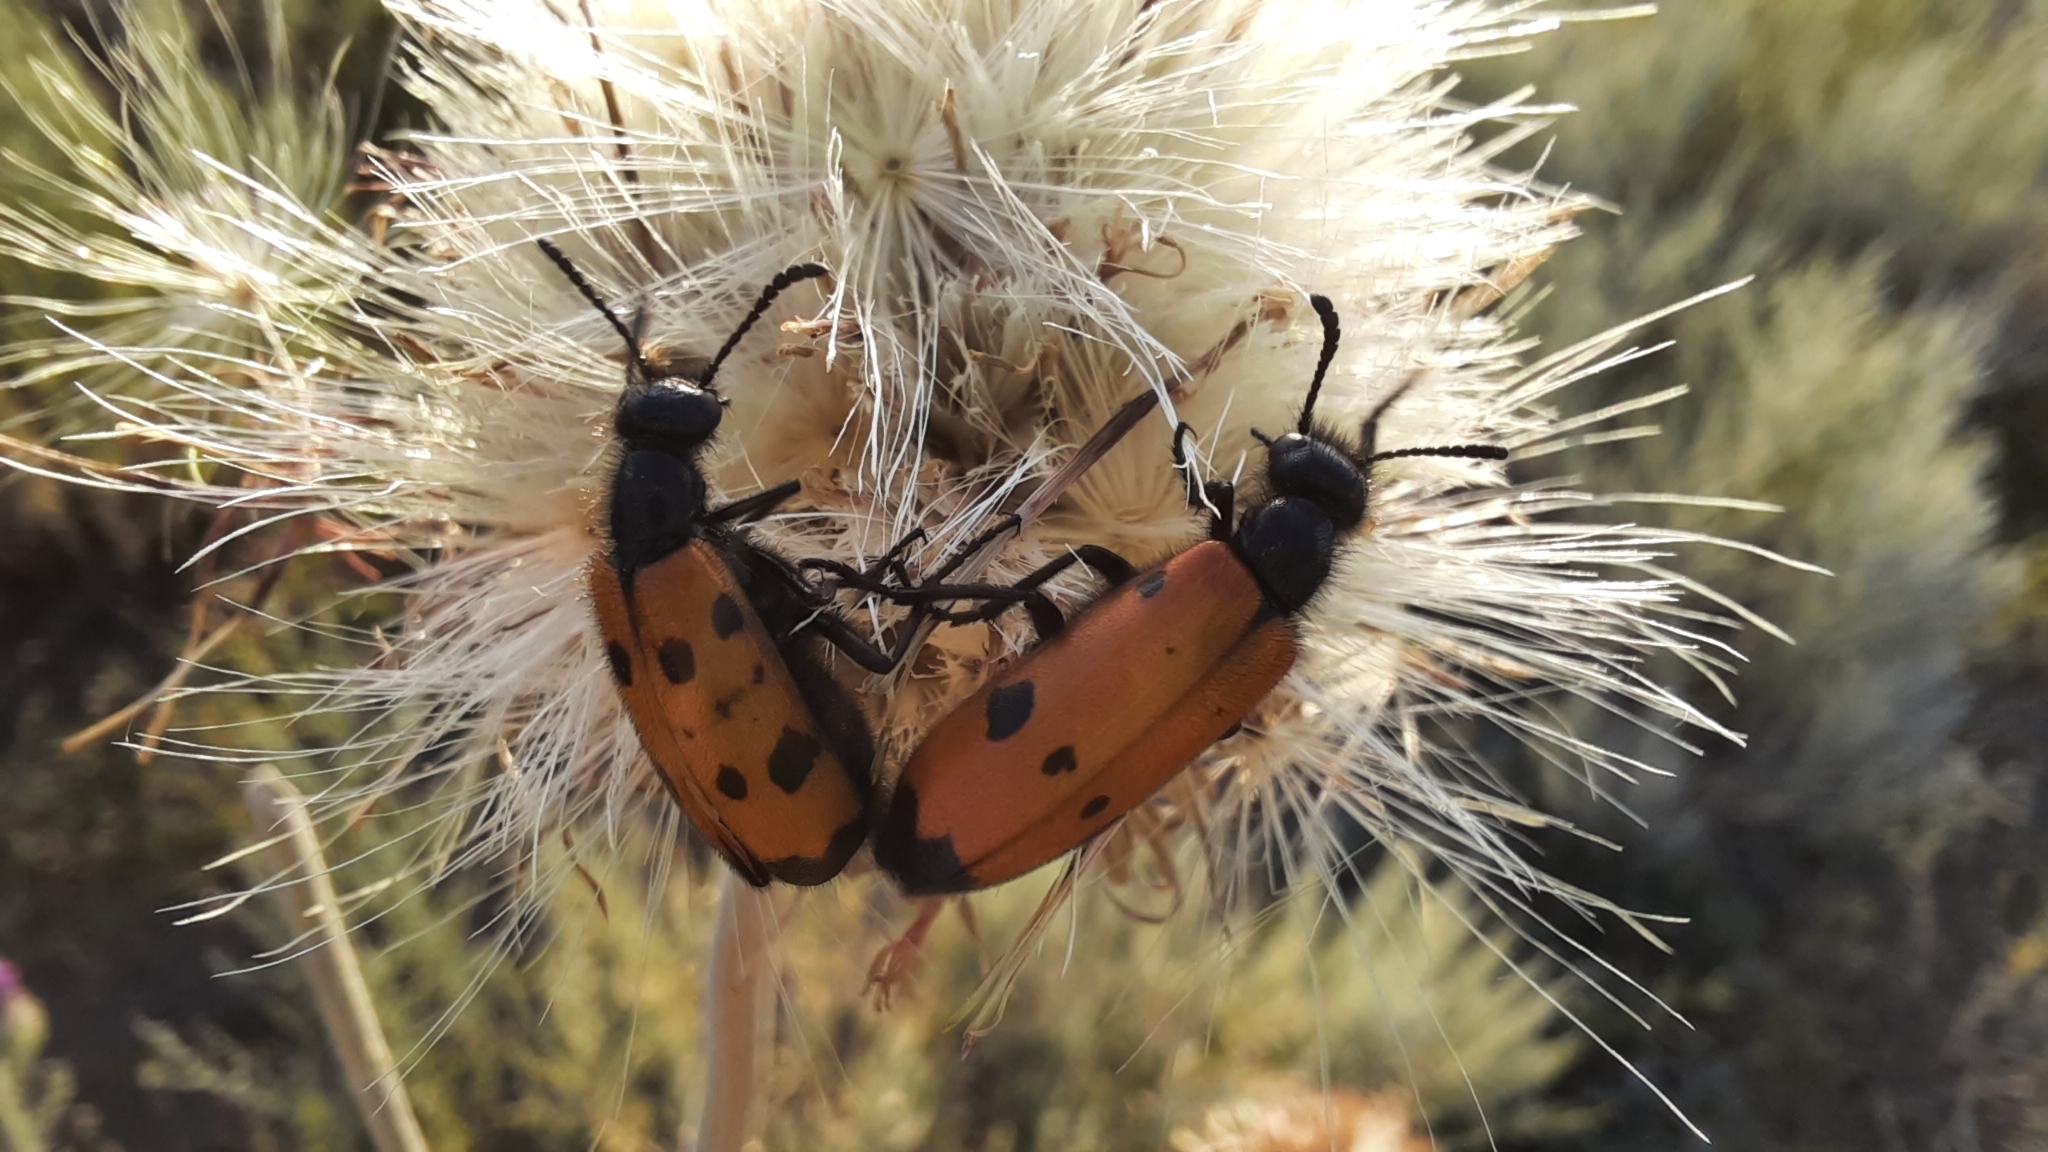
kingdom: Animalia
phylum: Arthropoda
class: Insecta
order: Coleoptera
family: Meloidae
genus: Mylabris
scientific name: Mylabris quadripunctata
